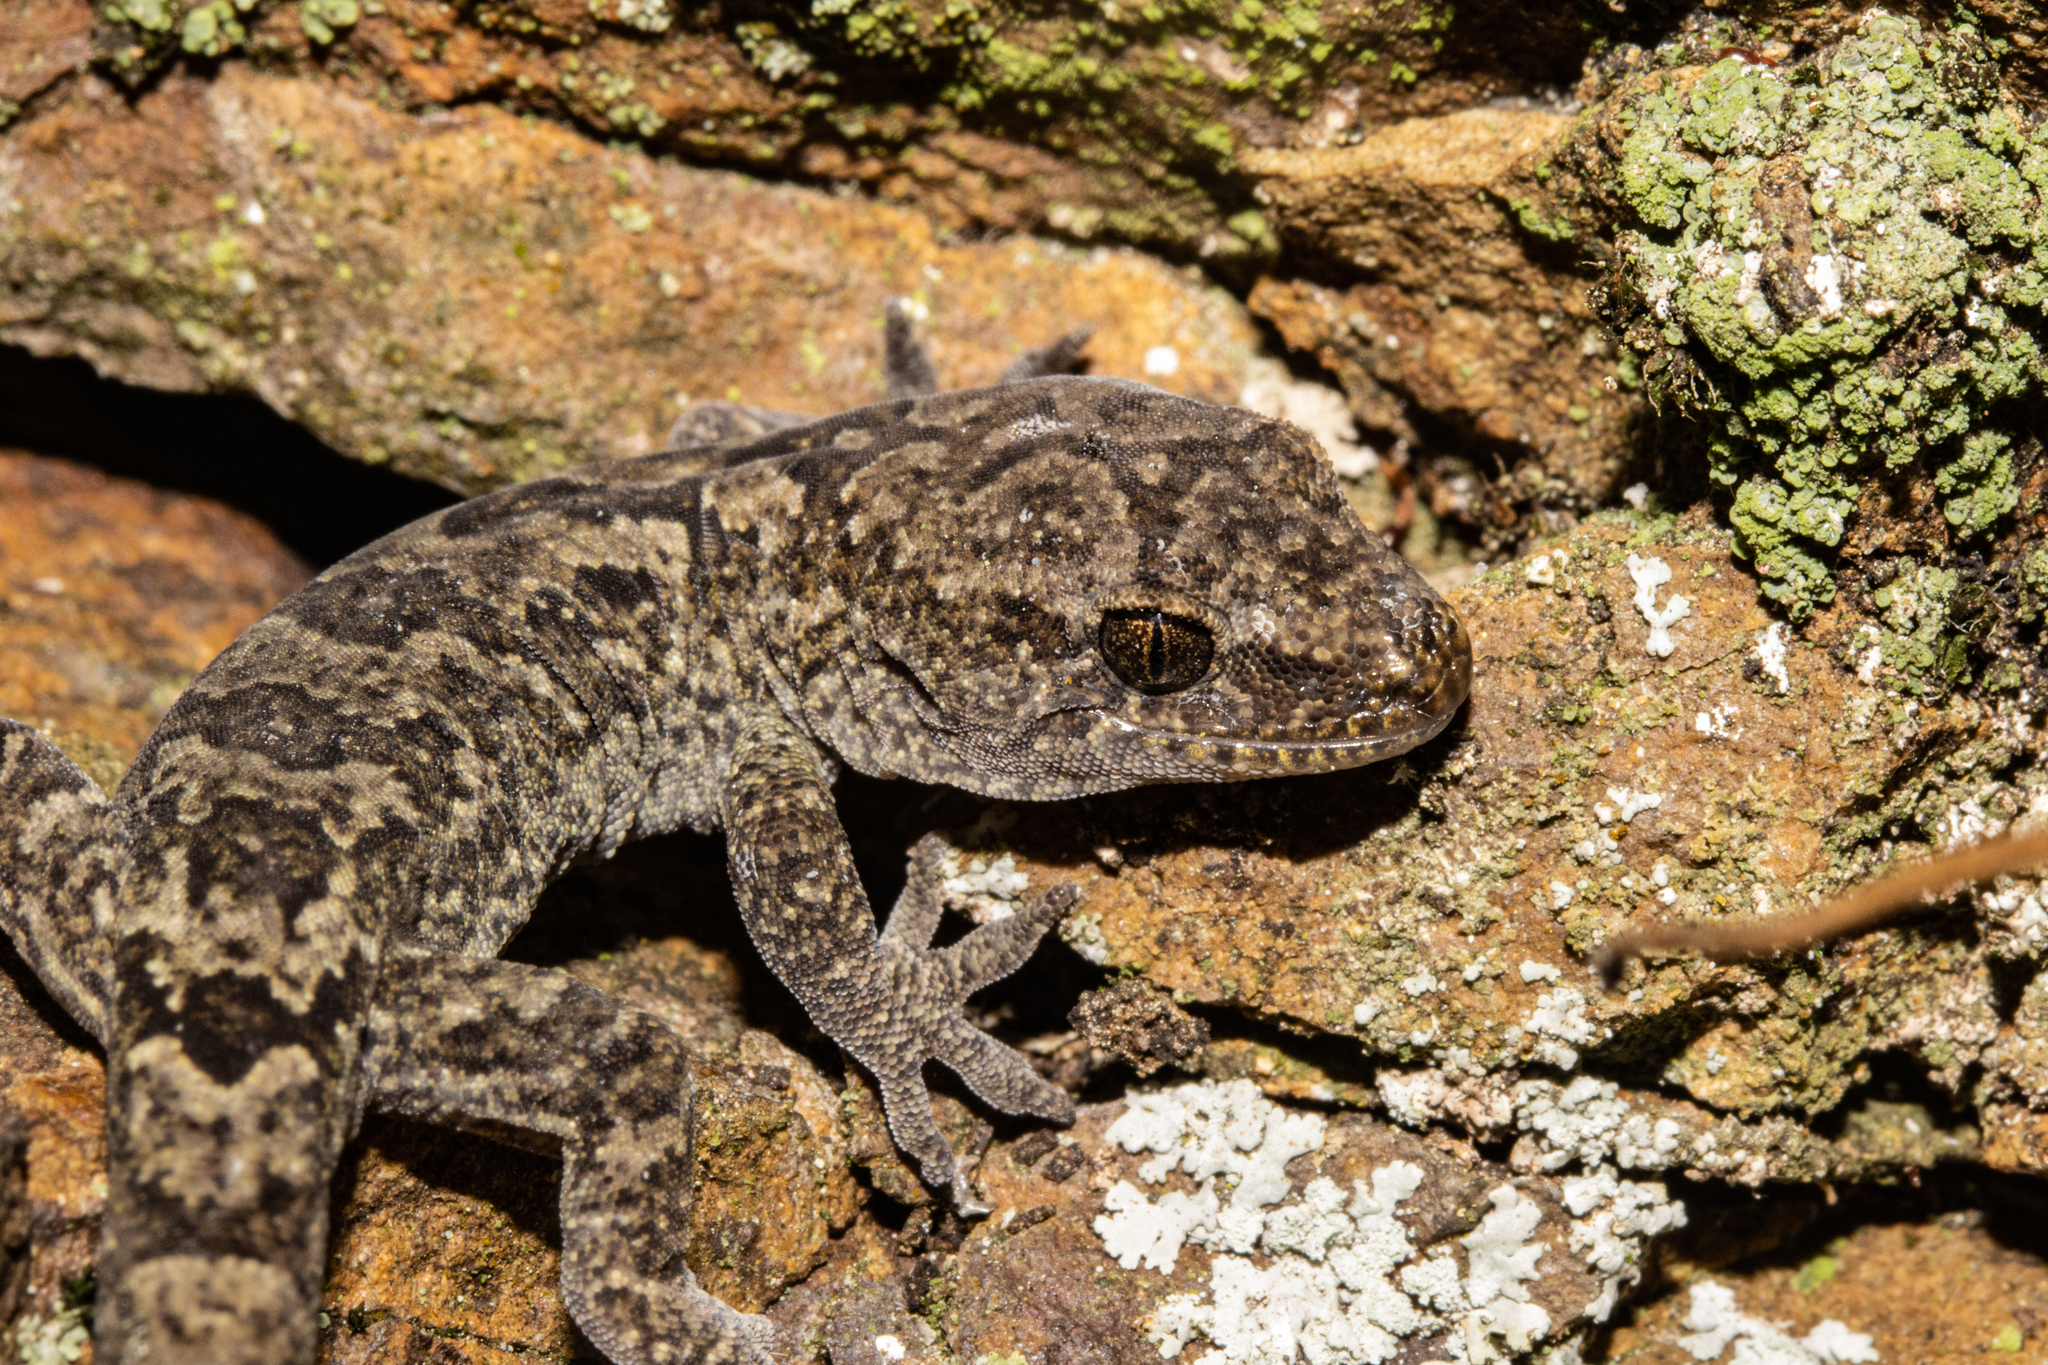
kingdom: Animalia
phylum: Chordata
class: Squamata
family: Diplodactylidae
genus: Woodworthia
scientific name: Woodworthia
